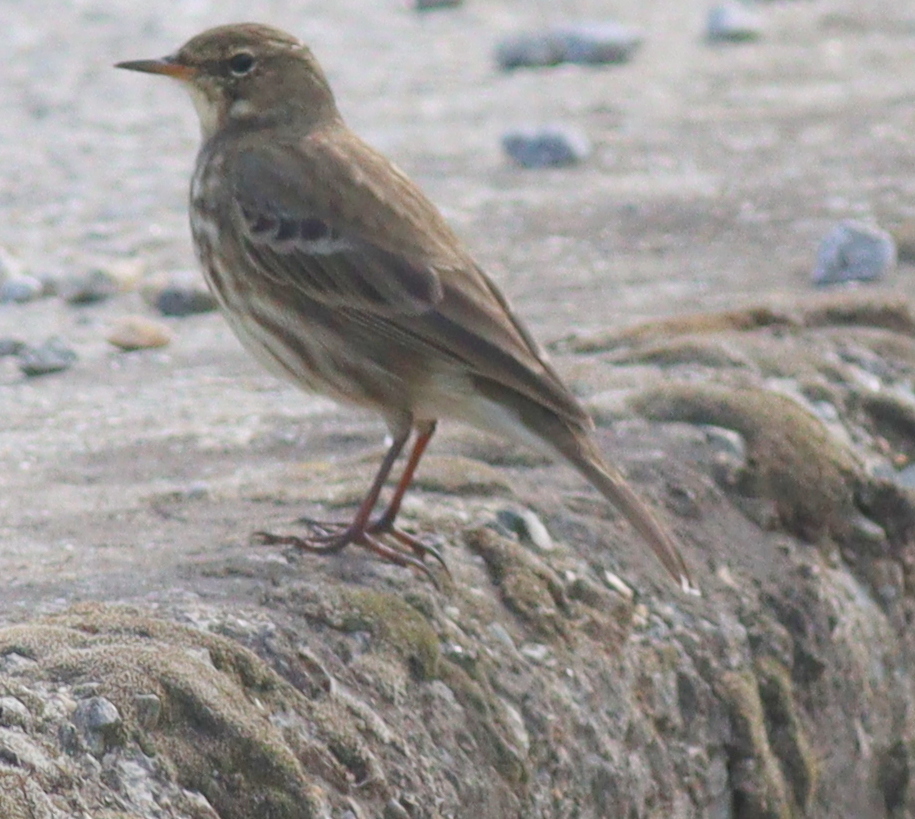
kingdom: Animalia
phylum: Chordata
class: Aves
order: Passeriformes
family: Motacillidae
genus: Anthus
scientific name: Anthus petrosus
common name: Eurasian rock pipit
